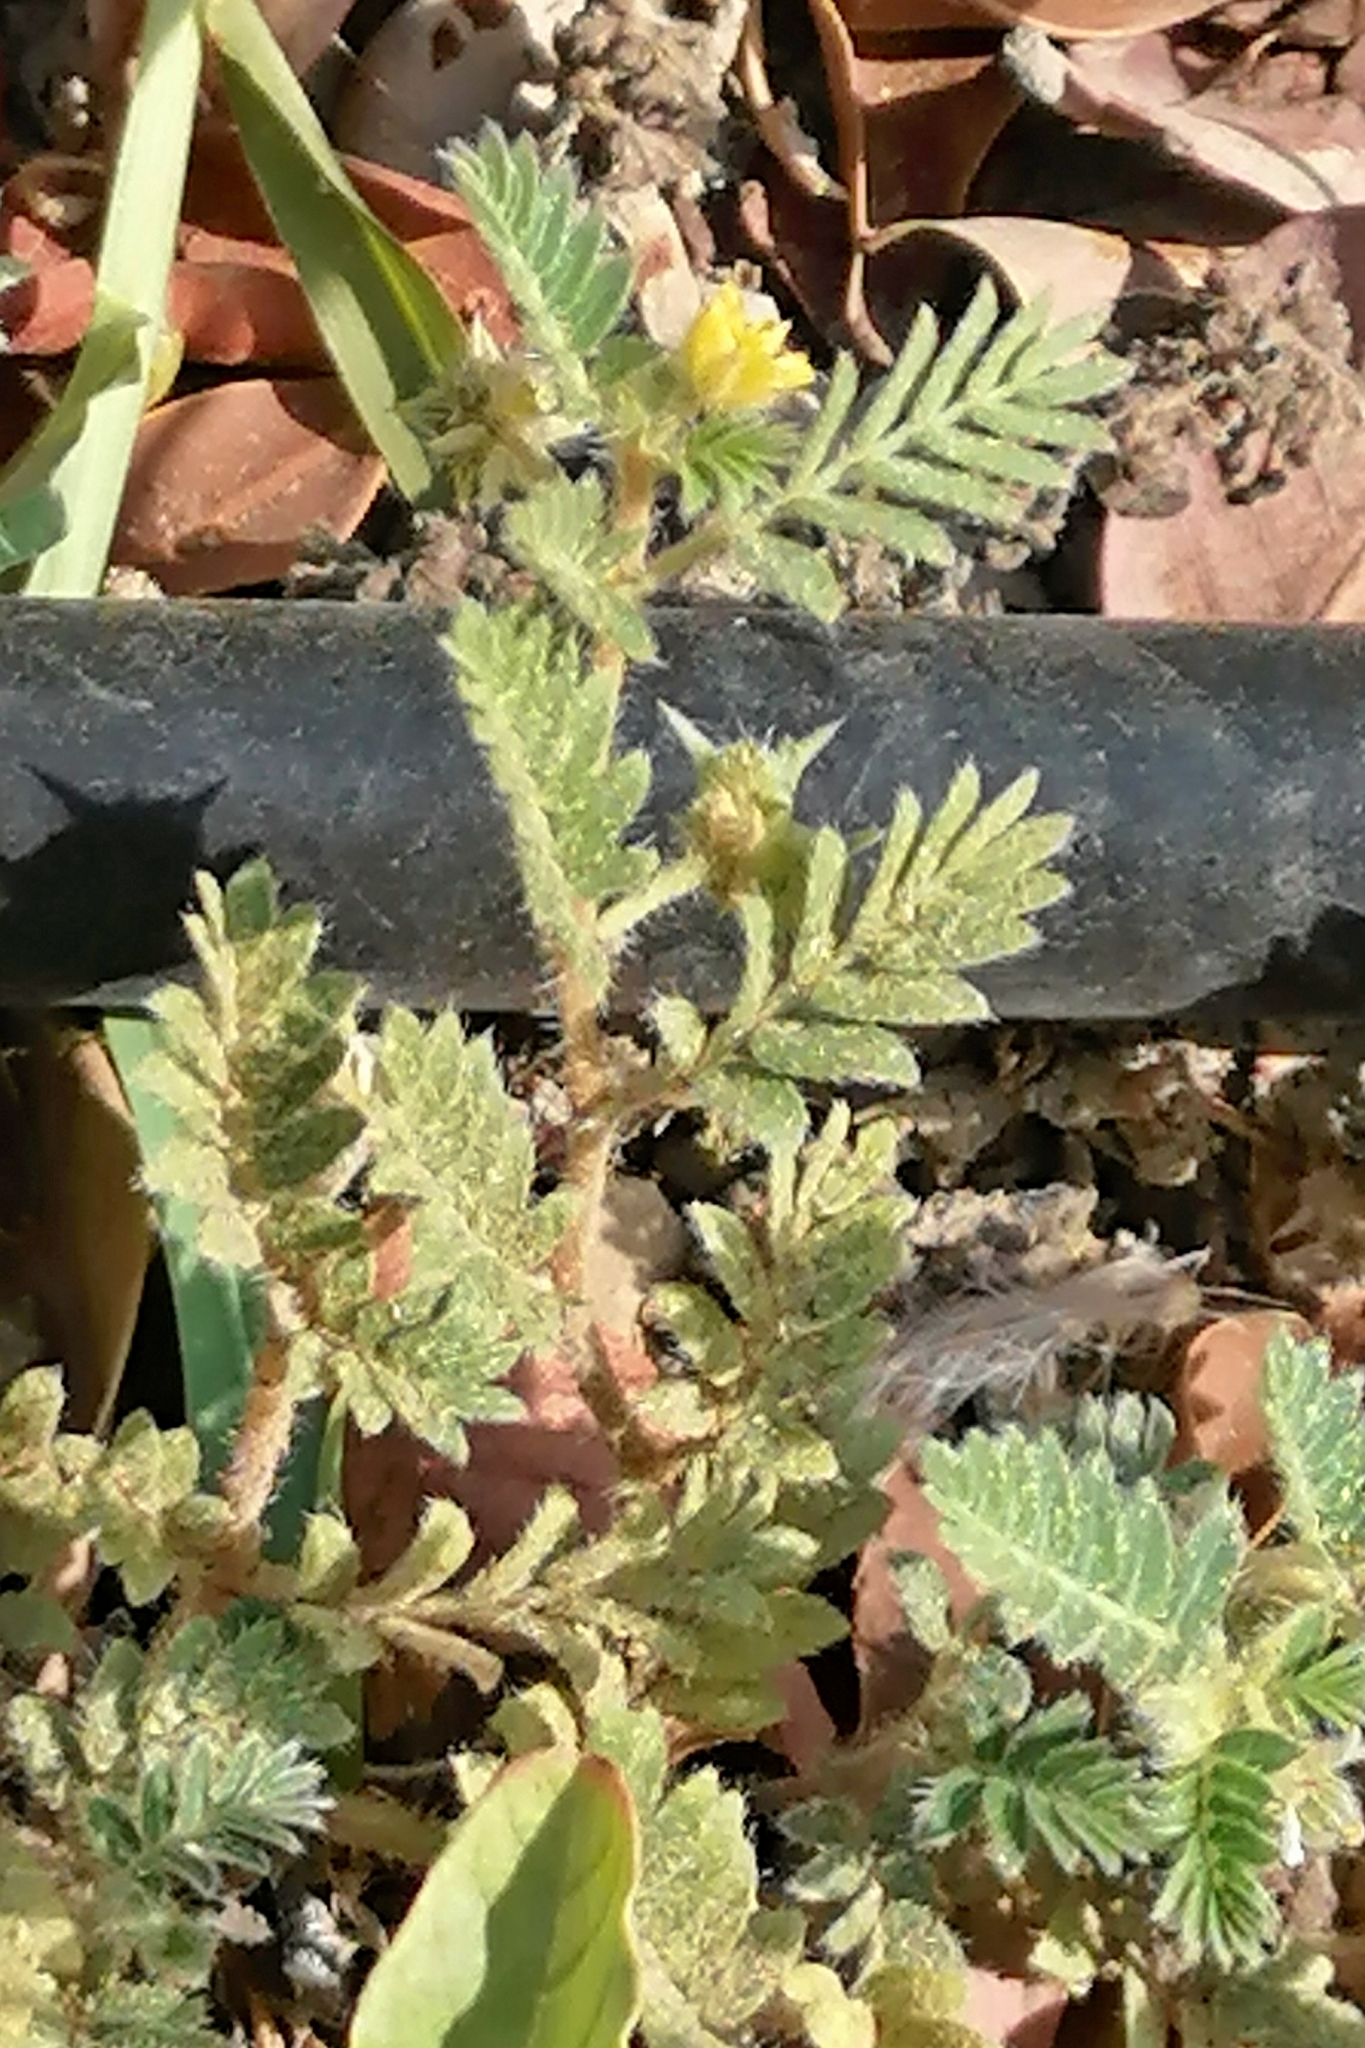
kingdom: Plantae
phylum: Tracheophyta
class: Magnoliopsida
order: Zygophyllales
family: Zygophyllaceae
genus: Tribulus
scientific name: Tribulus terrestris
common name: Puncturevine
